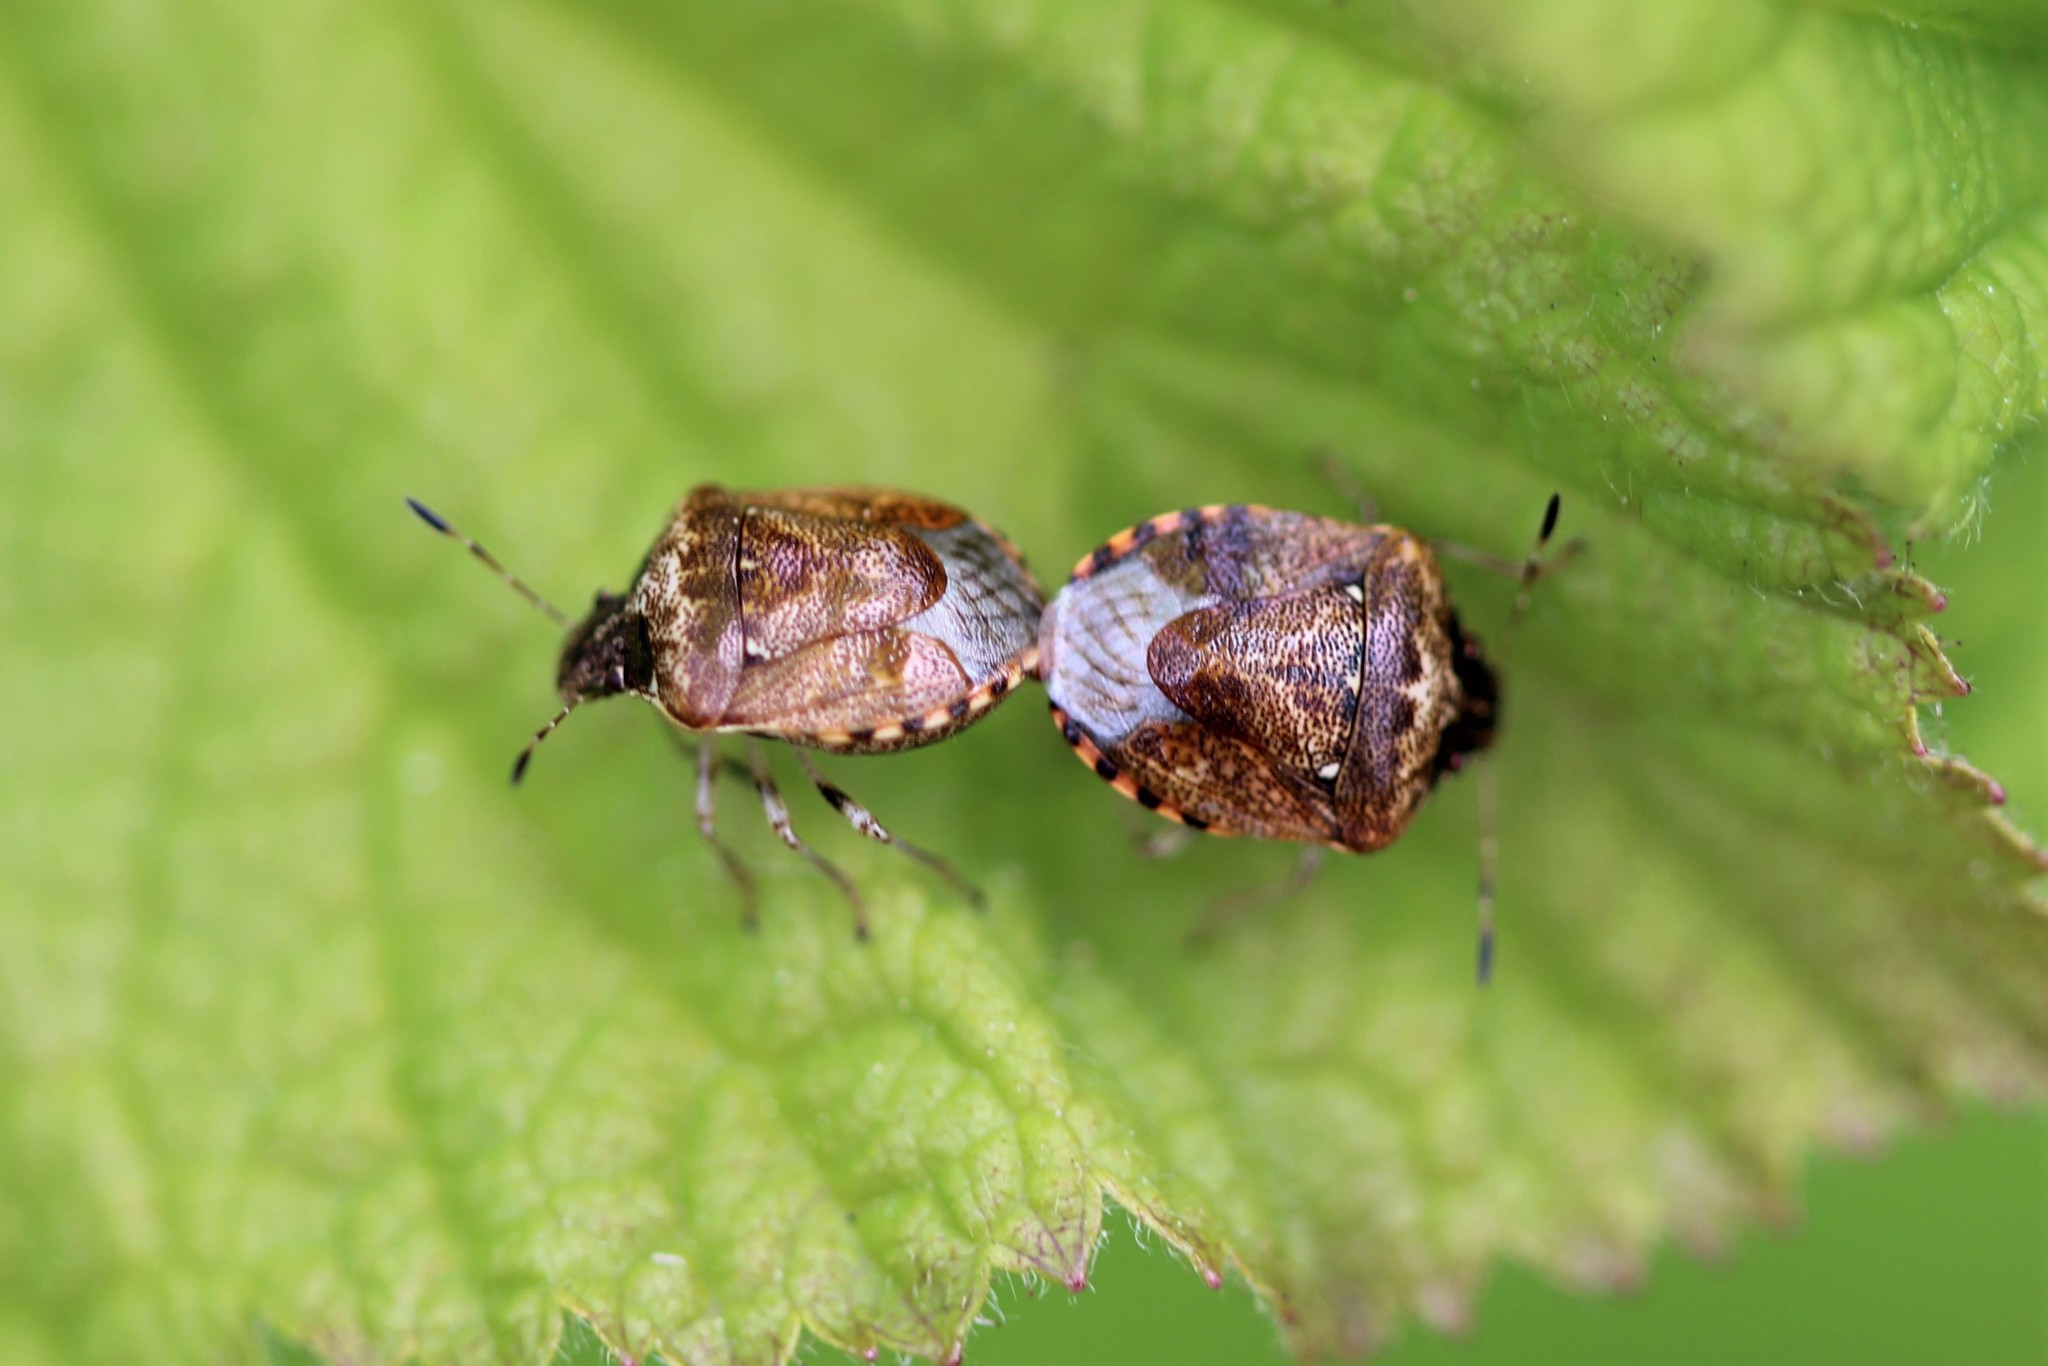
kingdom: Animalia
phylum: Arthropoda
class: Insecta
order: Hemiptera
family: Pentatomidae
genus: Cosmopepla
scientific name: Cosmopepla intergressus
